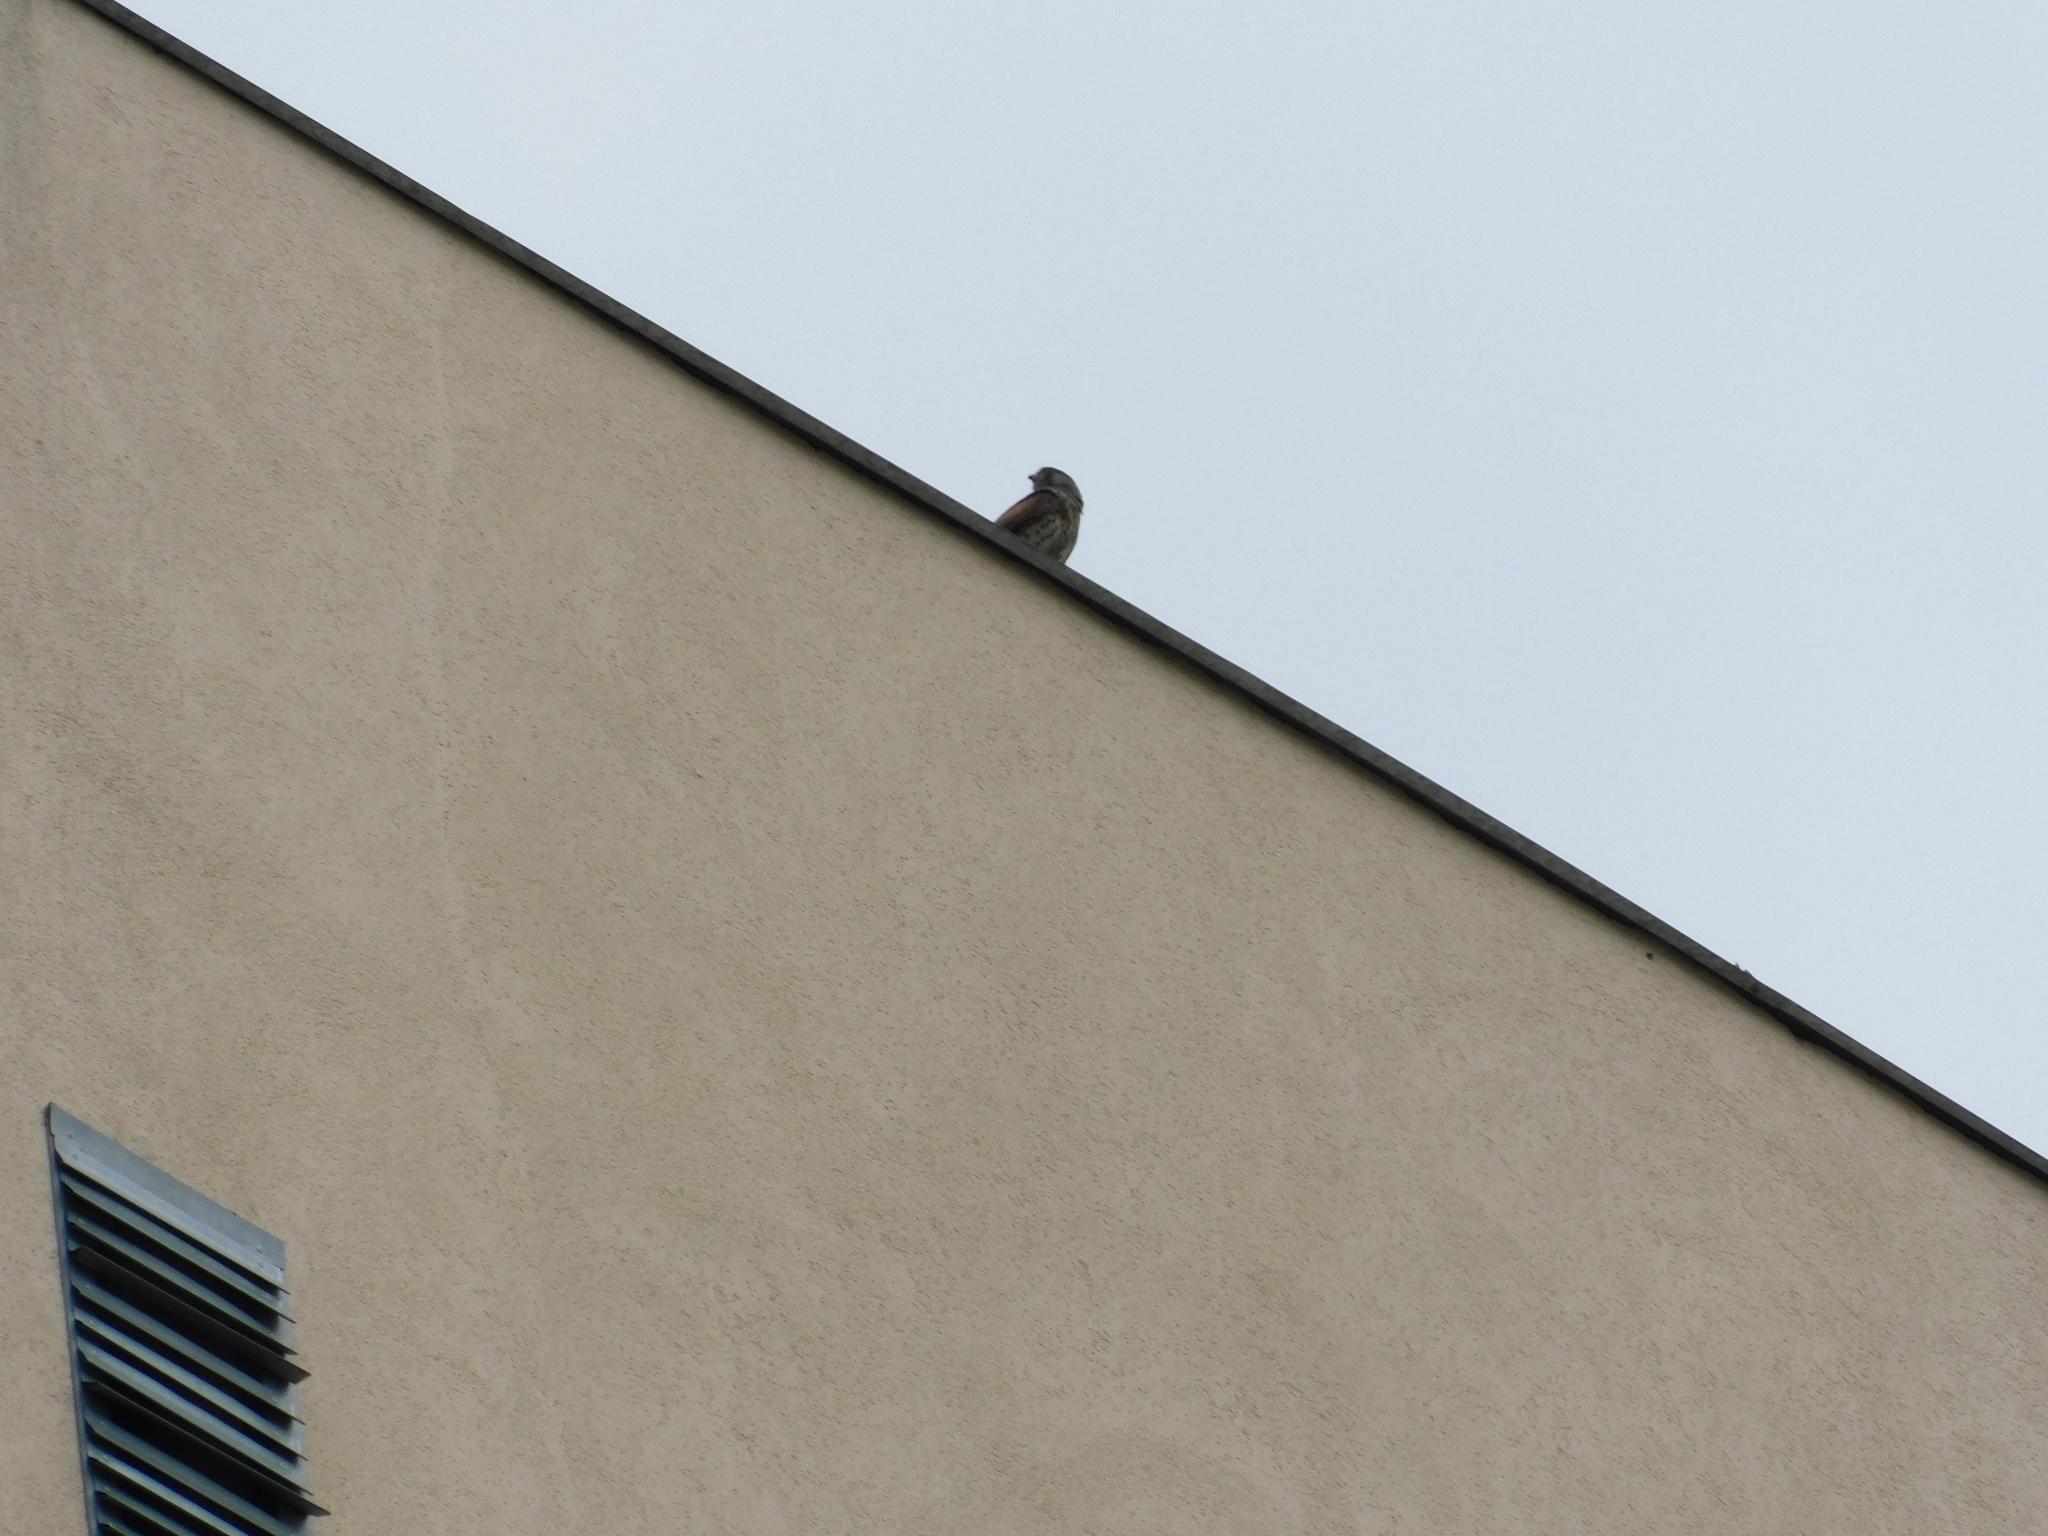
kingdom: Animalia
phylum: Chordata
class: Aves
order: Falconiformes
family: Falconidae
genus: Falco
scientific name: Falco tinnunculus
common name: Common kestrel
